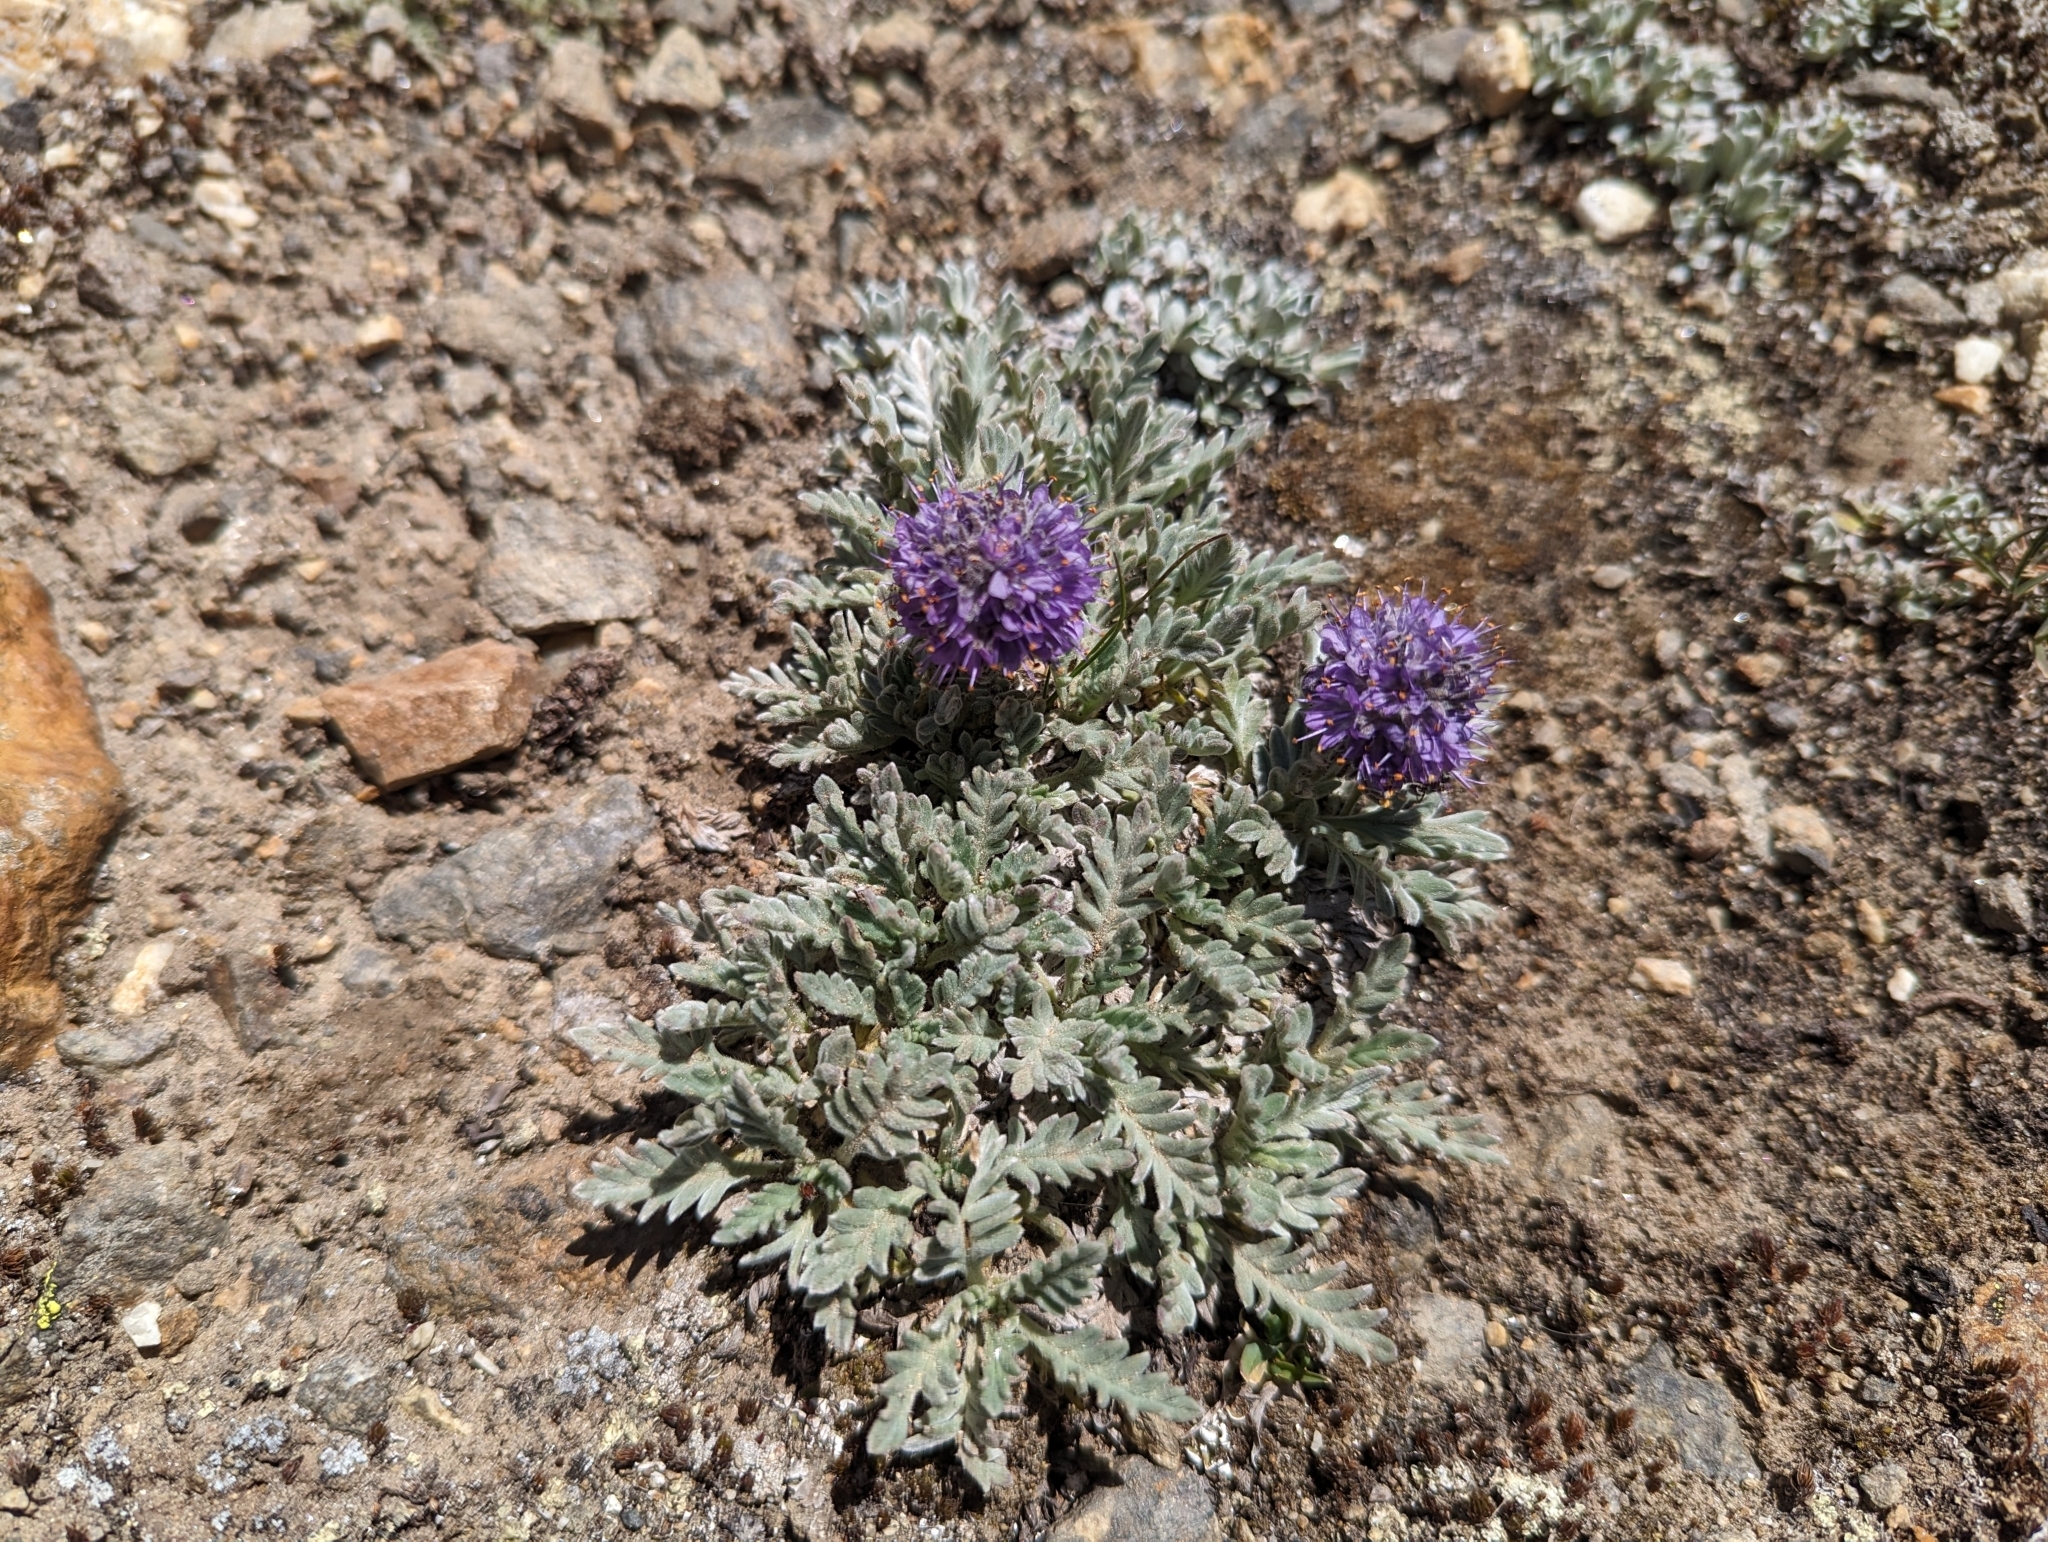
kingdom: Plantae
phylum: Tracheophyta
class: Magnoliopsida
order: Boraginales
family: Hydrophyllaceae
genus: Phacelia
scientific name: Phacelia sericea
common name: Silky phacelia
